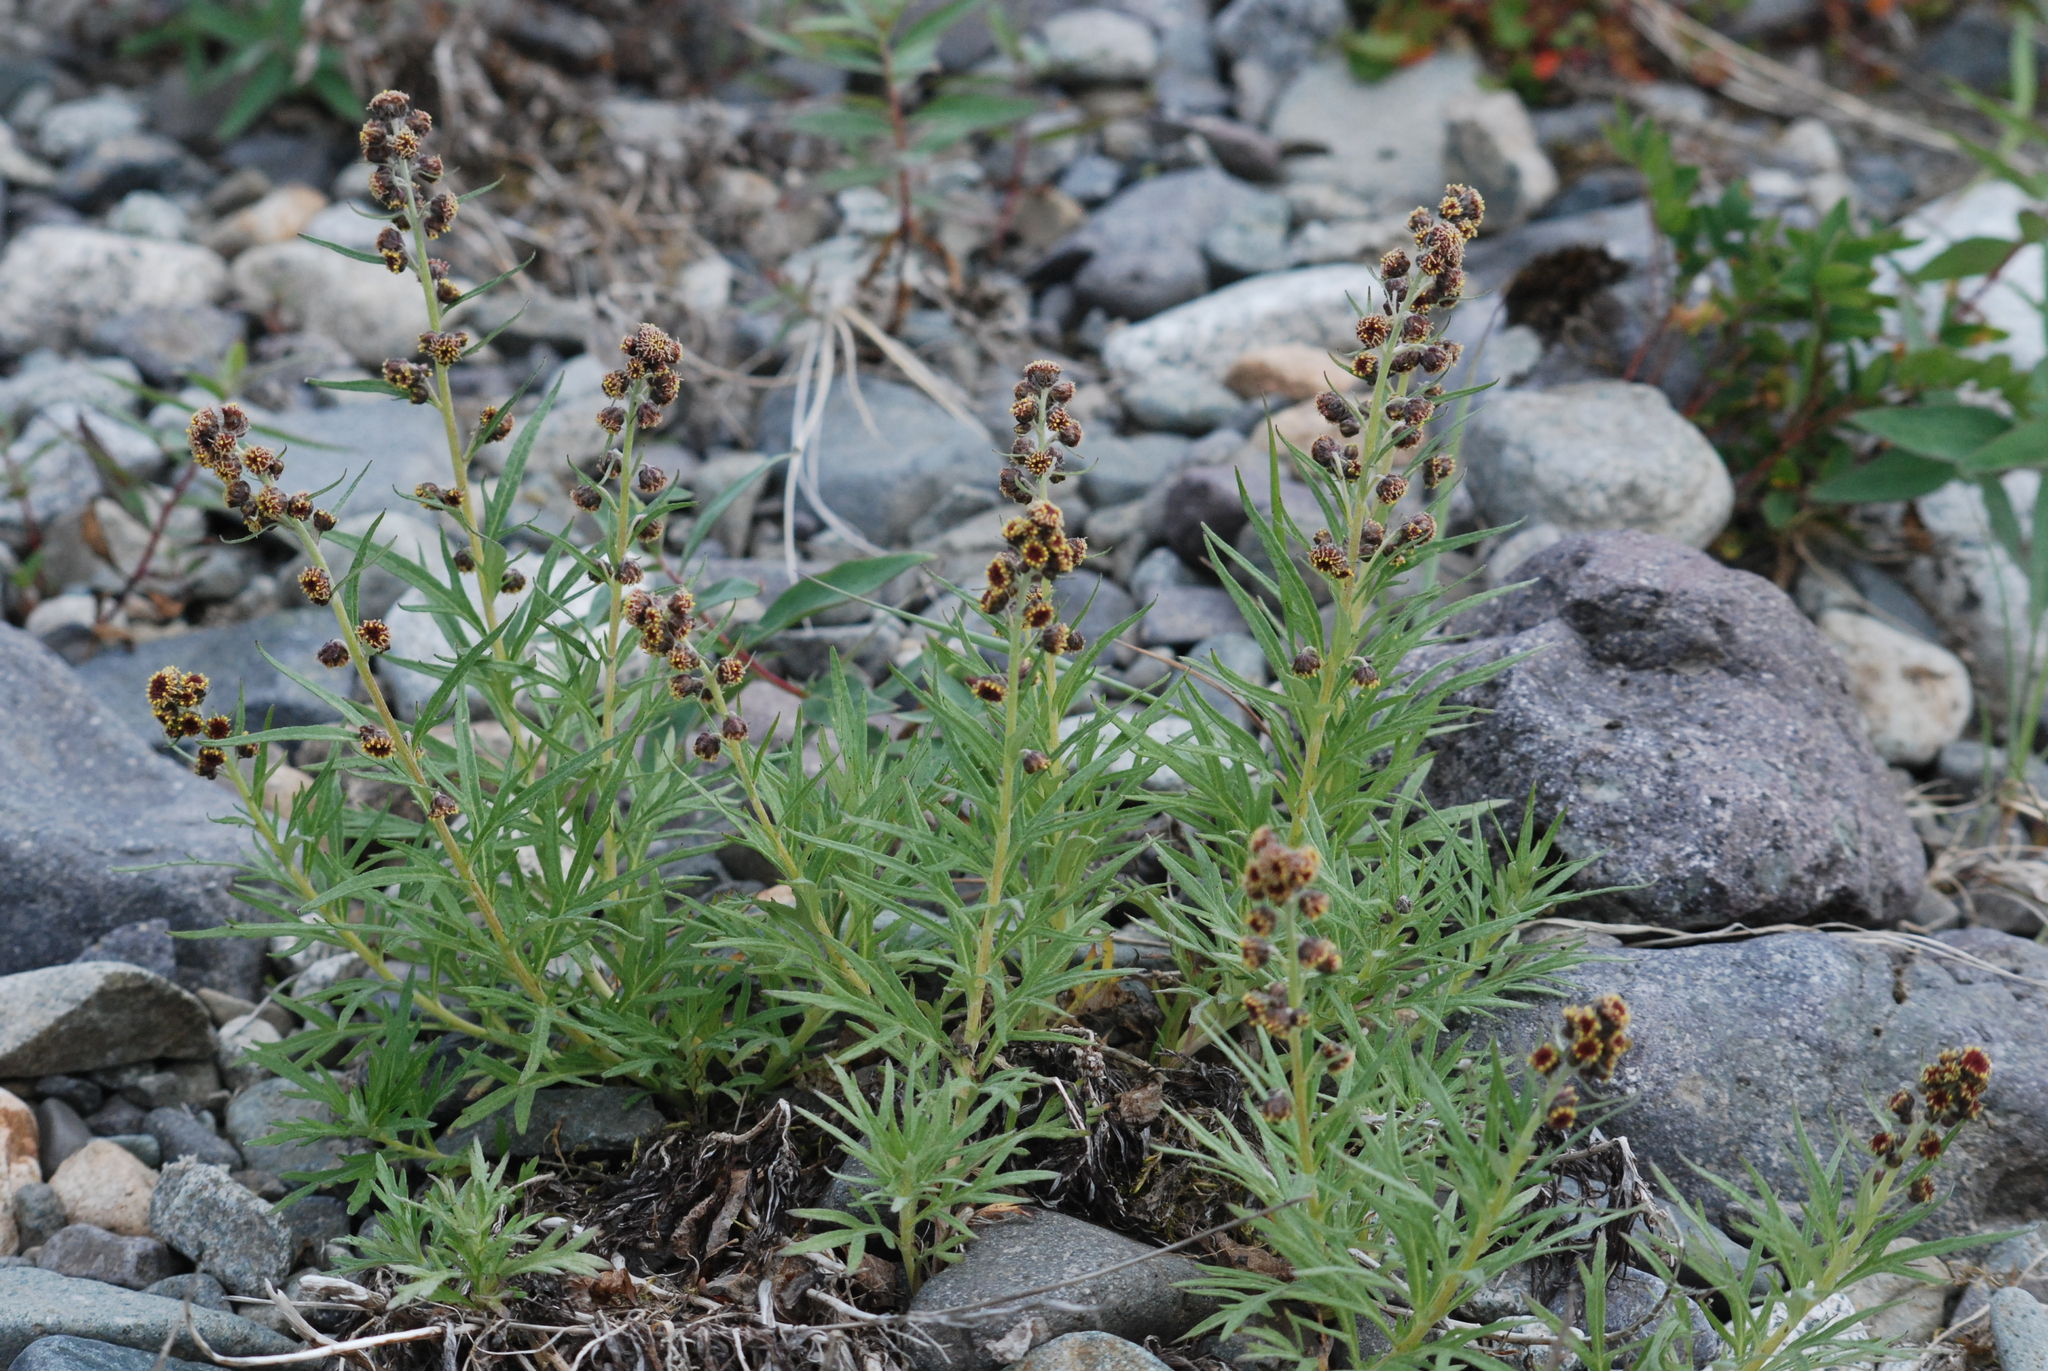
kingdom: Plantae
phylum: Tracheophyta
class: Magnoliopsida
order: Asterales
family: Asteraceae
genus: Artemisia
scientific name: Artemisia tilesii
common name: Aleutian mugwort
